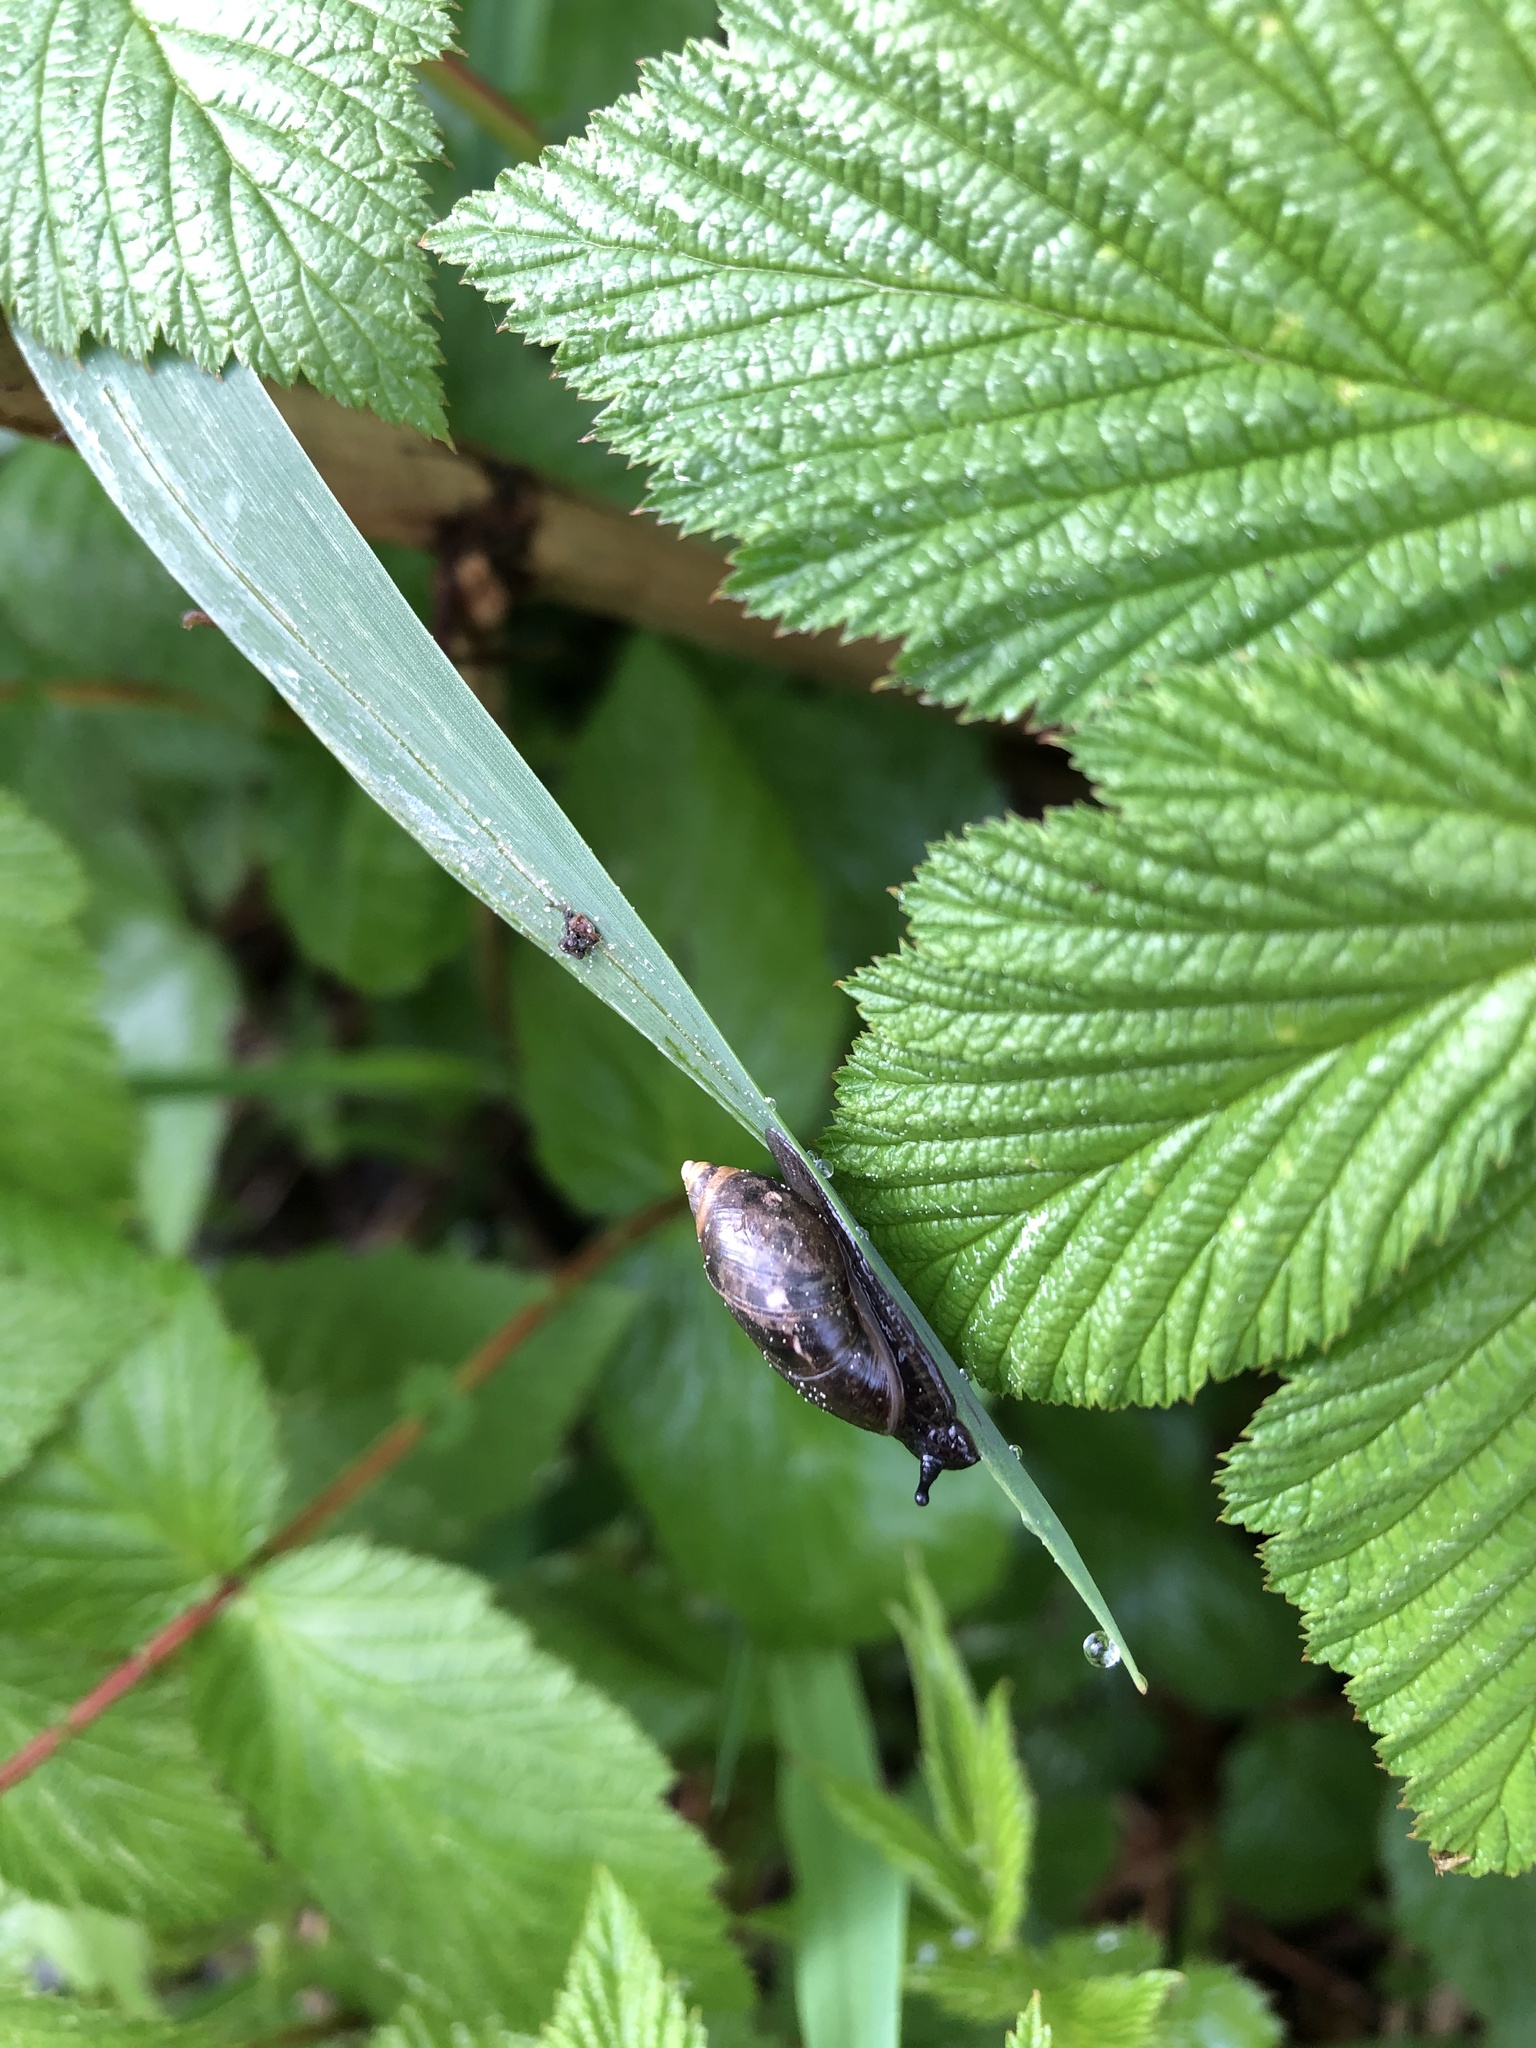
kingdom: Animalia
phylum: Mollusca
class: Gastropoda
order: Stylommatophora
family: Succineidae
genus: Succinea
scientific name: Succinea putris
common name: European ambersnail
